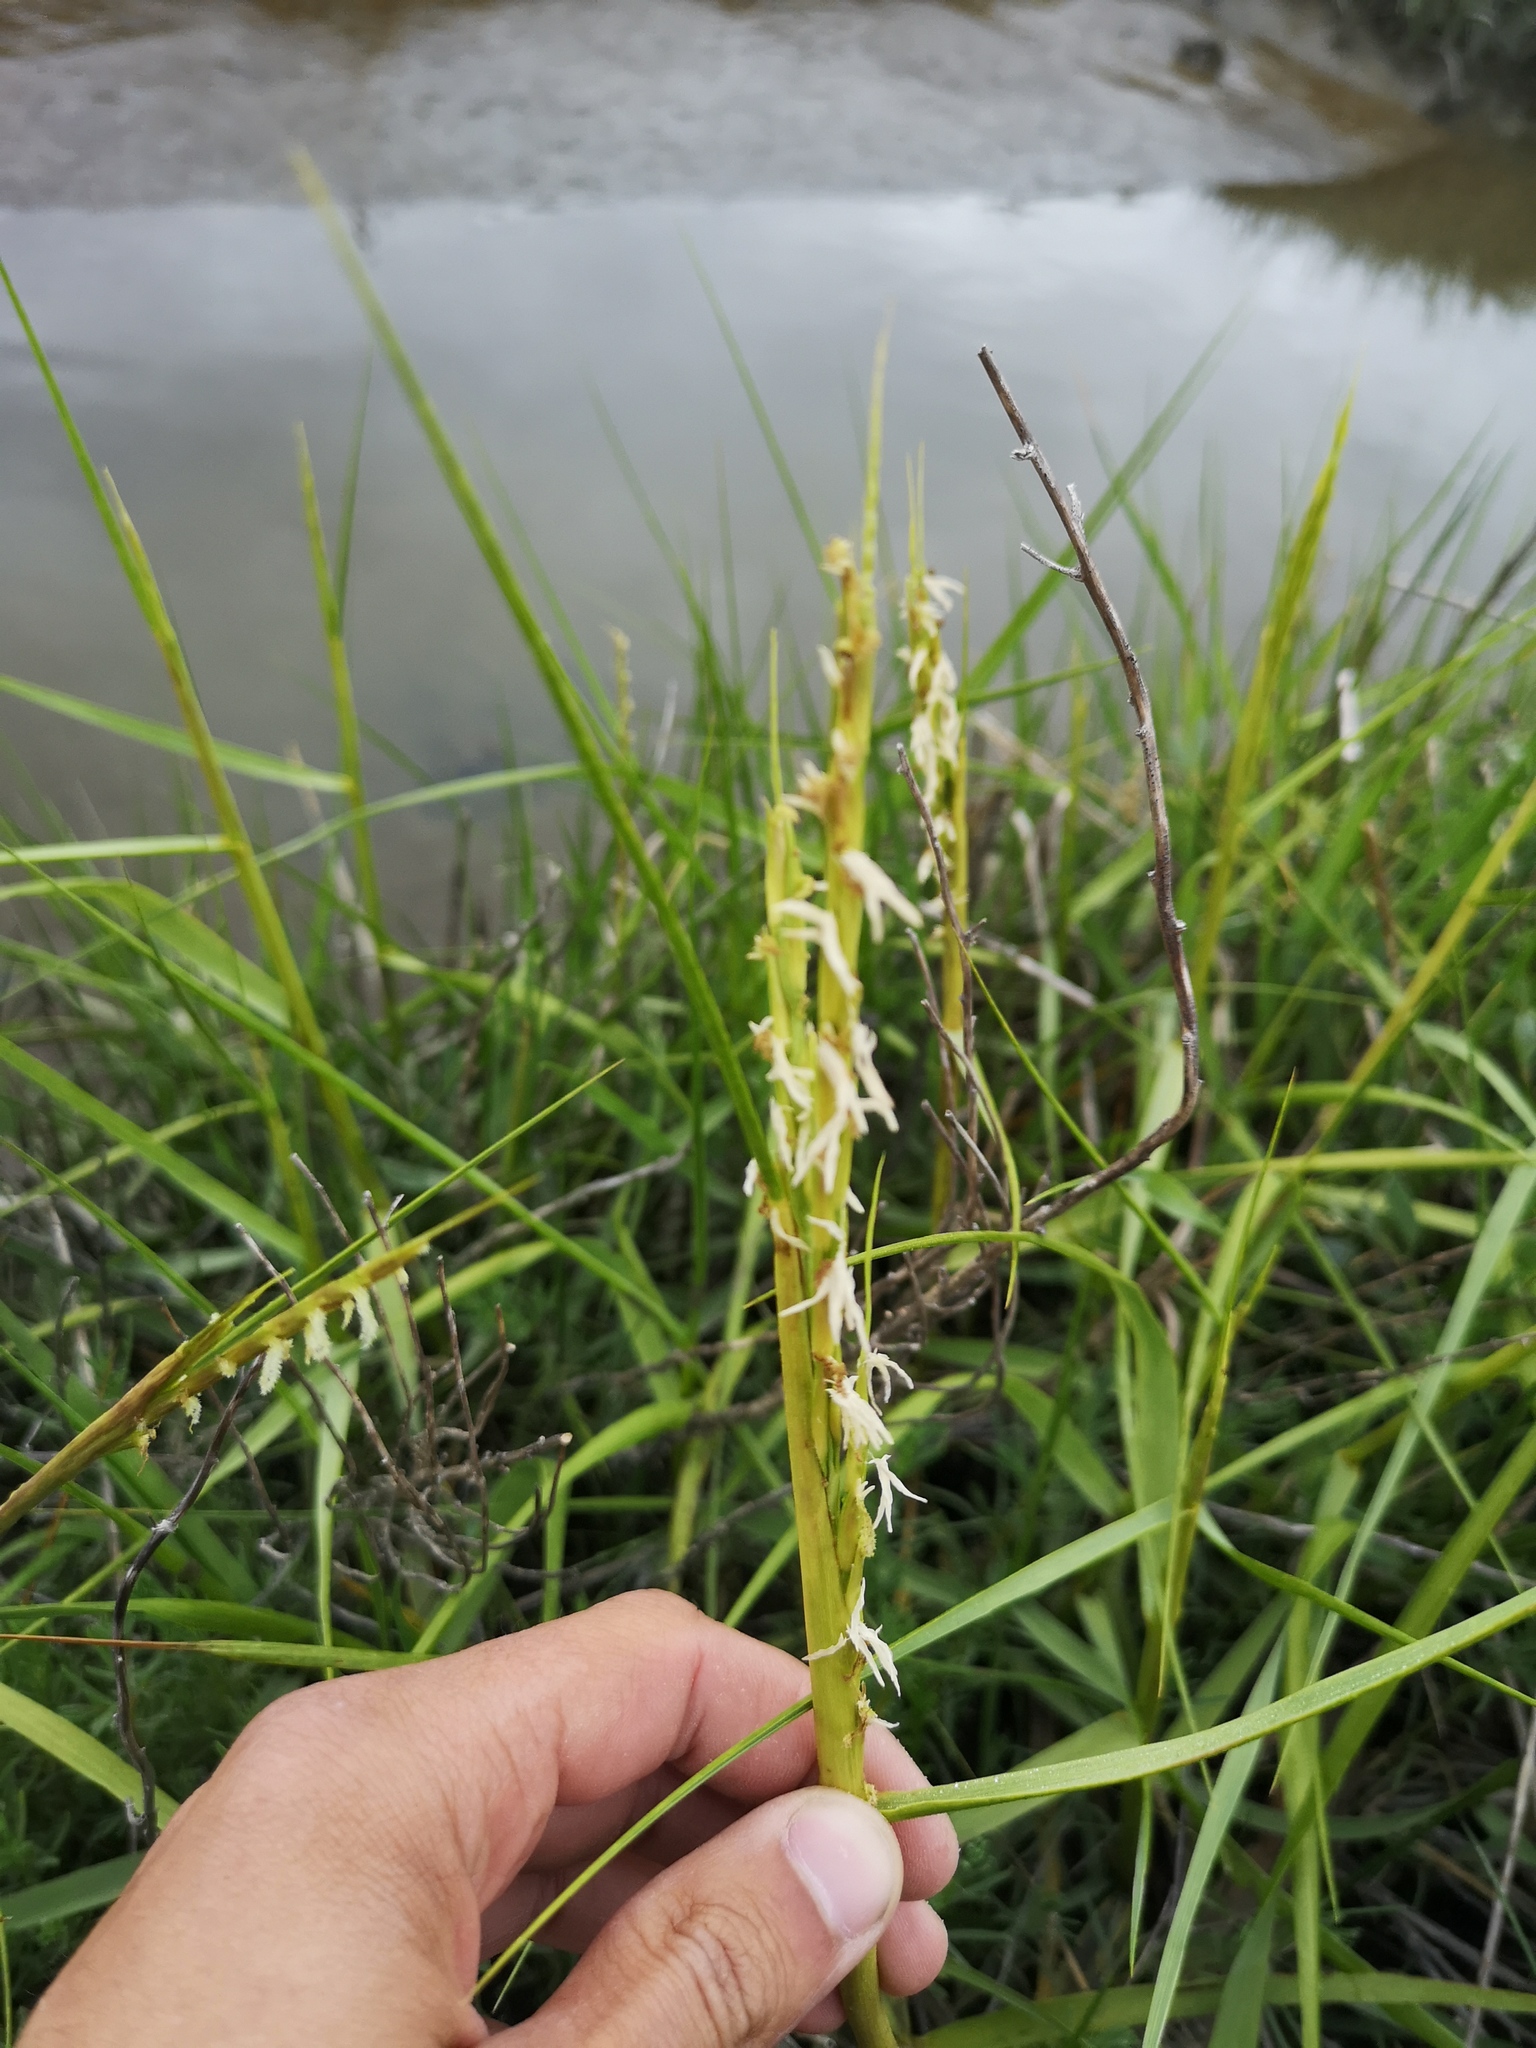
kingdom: Plantae
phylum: Tracheophyta
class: Liliopsida
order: Poales
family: Poaceae
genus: Sporobolus
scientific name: Sporobolus anglicus
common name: English cordgrass
